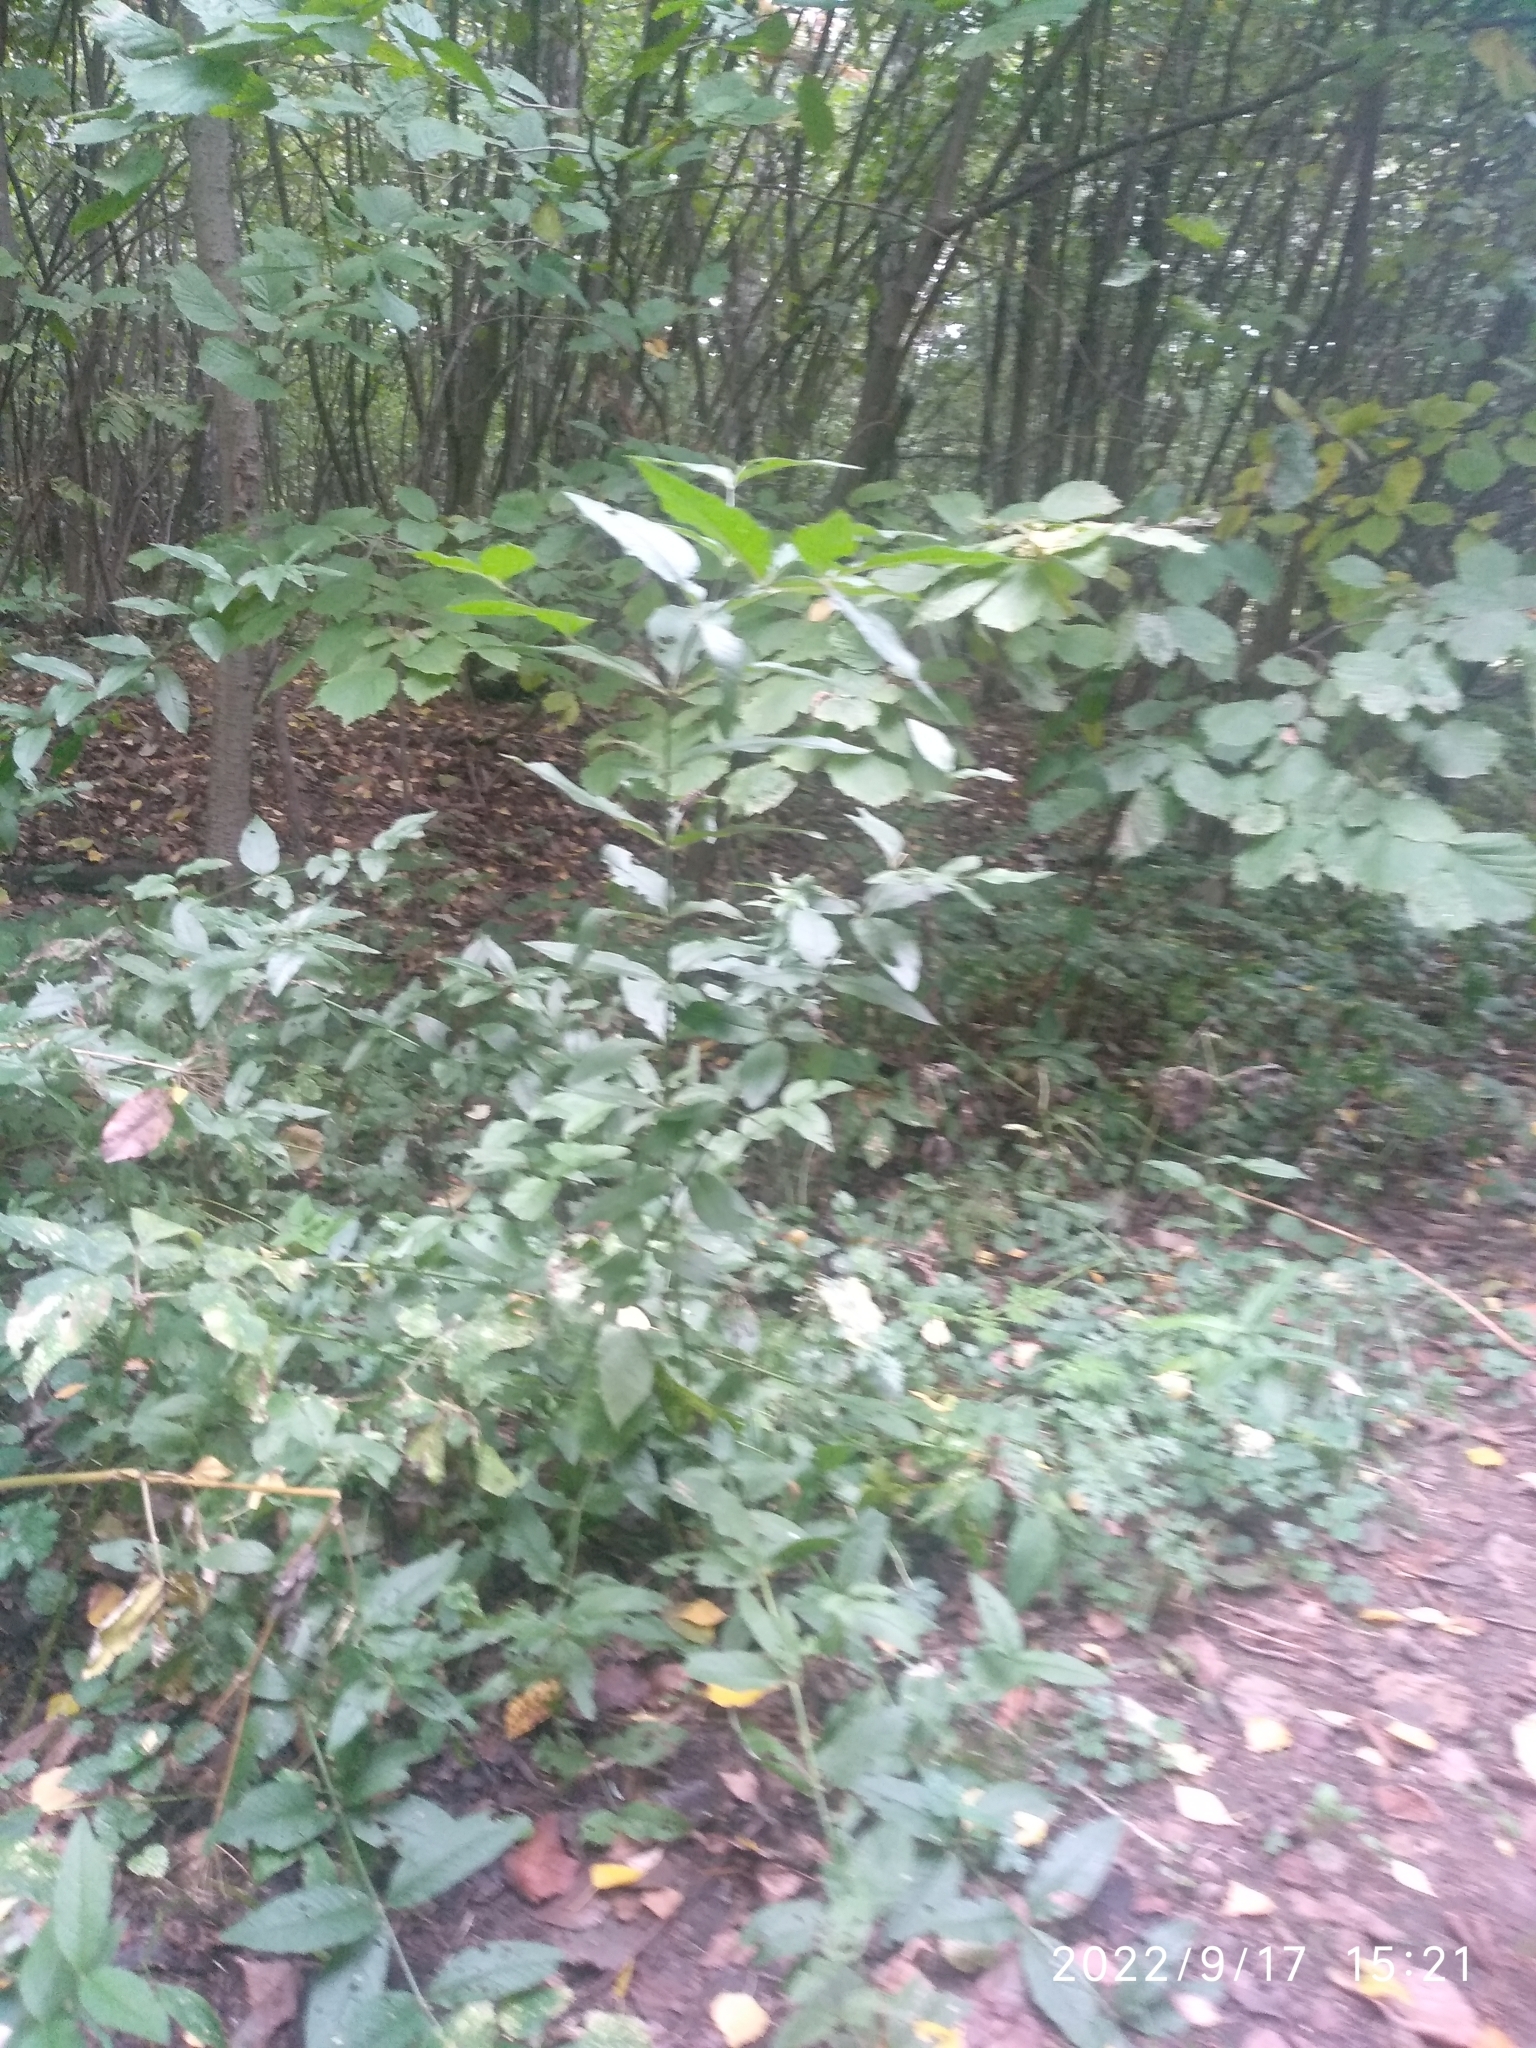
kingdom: Plantae
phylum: Tracheophyta
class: Magnoliopsida
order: Celastrales
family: Celastraceae
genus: Euonymus
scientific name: Euonymus verrucosus
